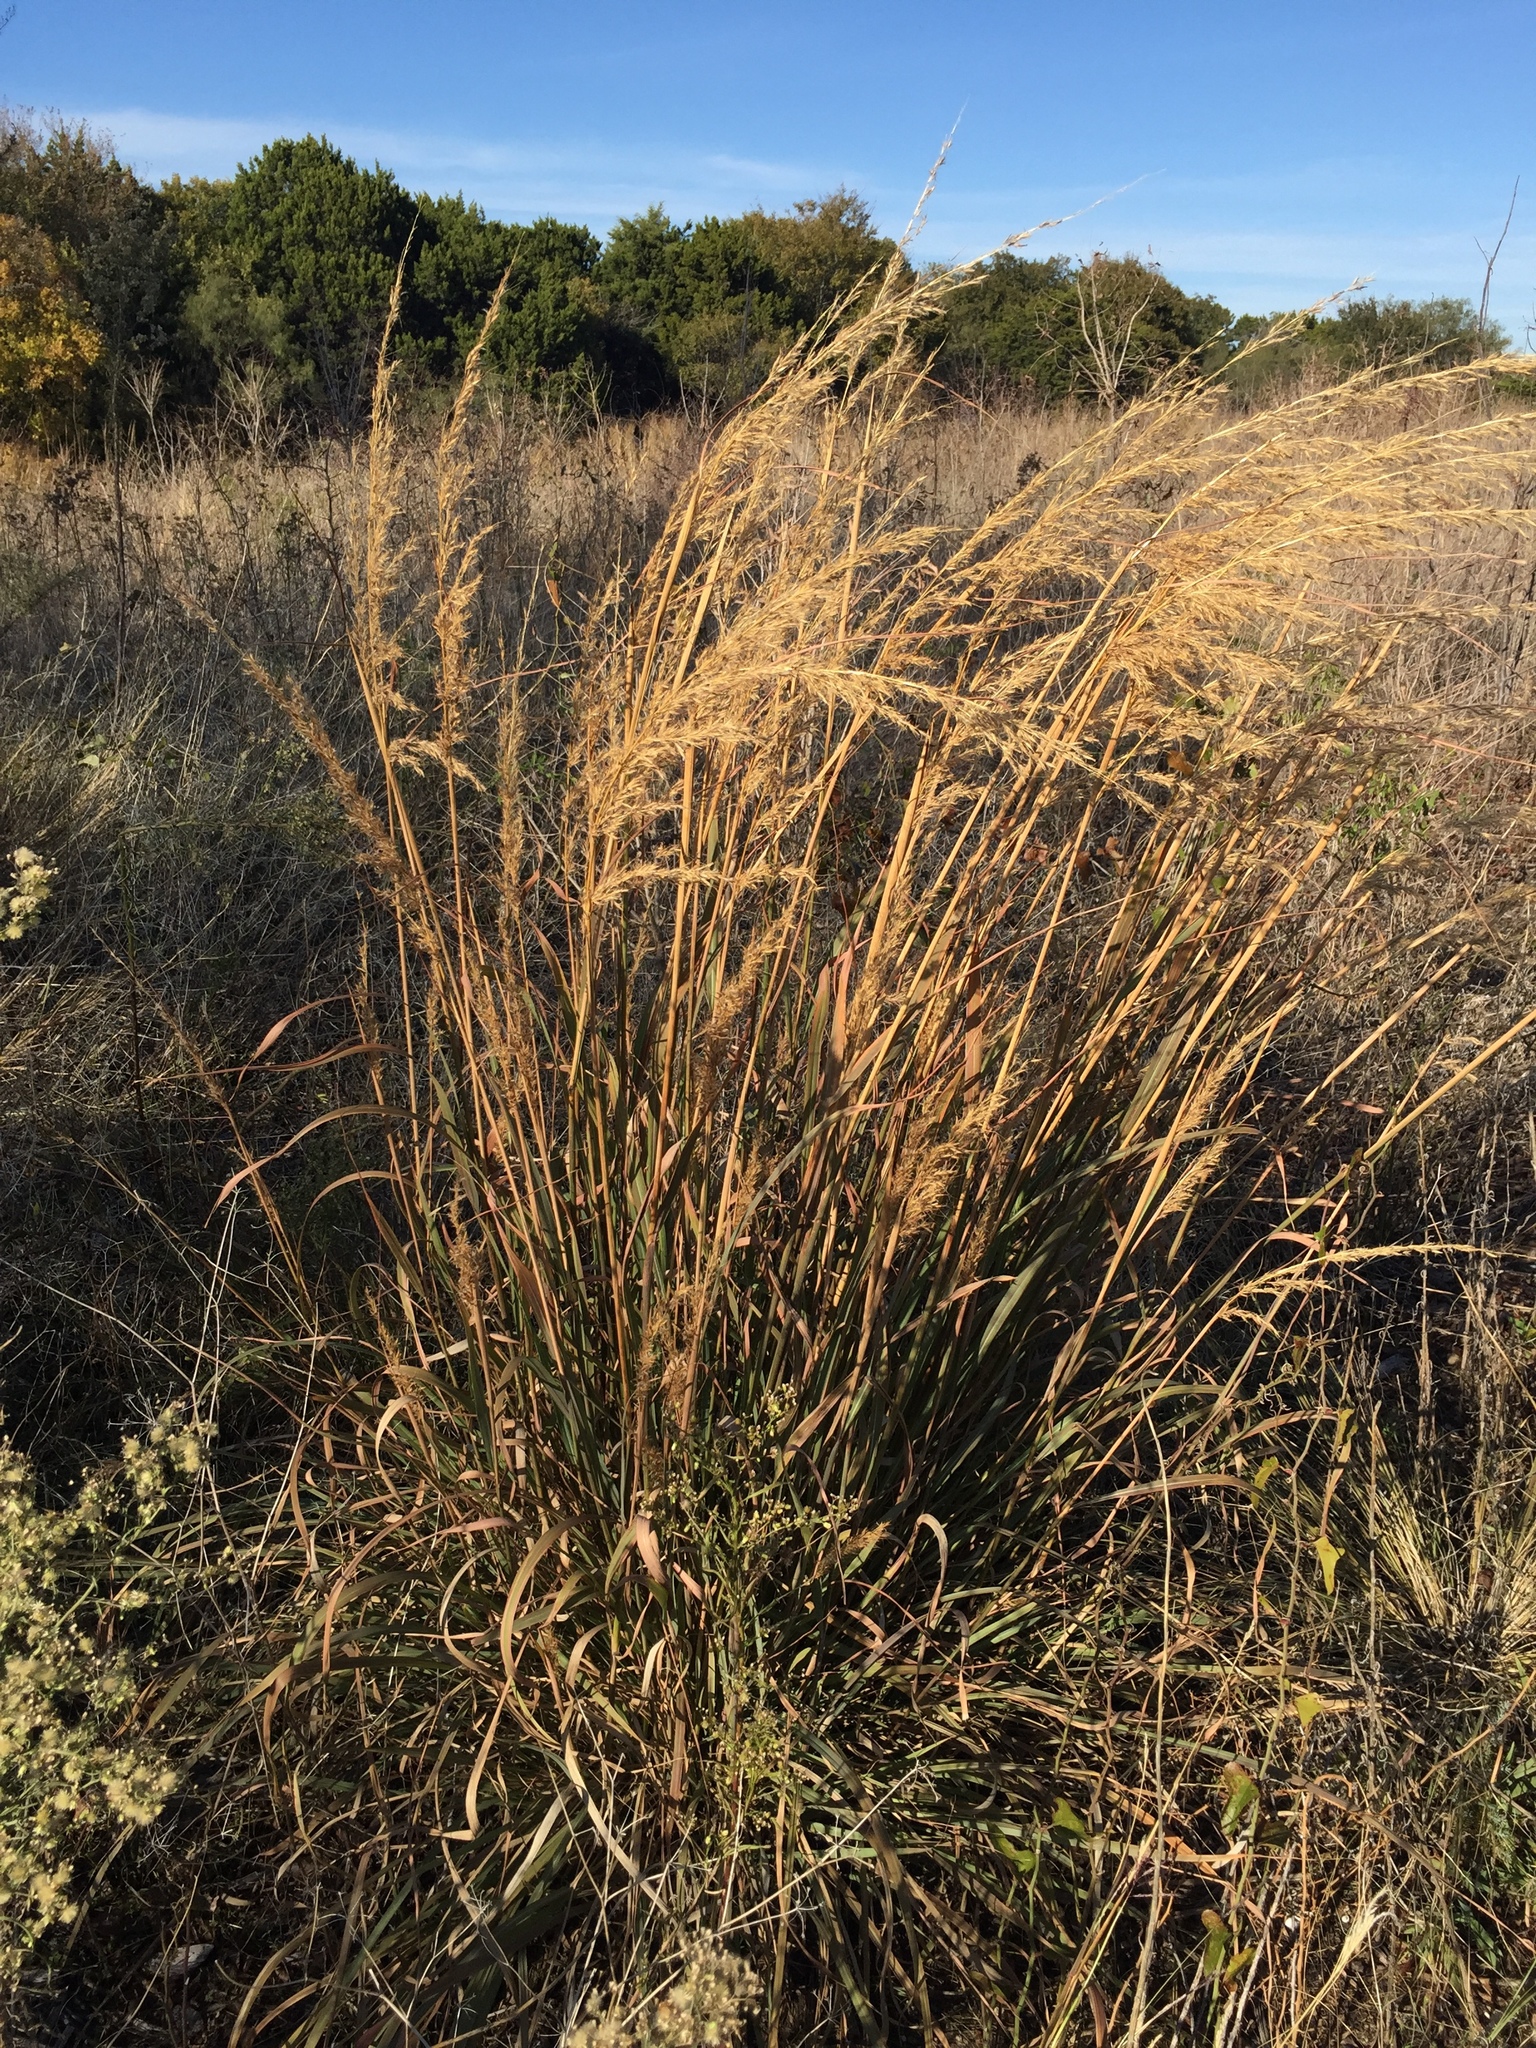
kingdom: Plantae
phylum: Tracheophyta
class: Liliopsida
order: Poales
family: Poaceae
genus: Sorghastrum
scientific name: Sorghastrum nutans
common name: Indian grass
